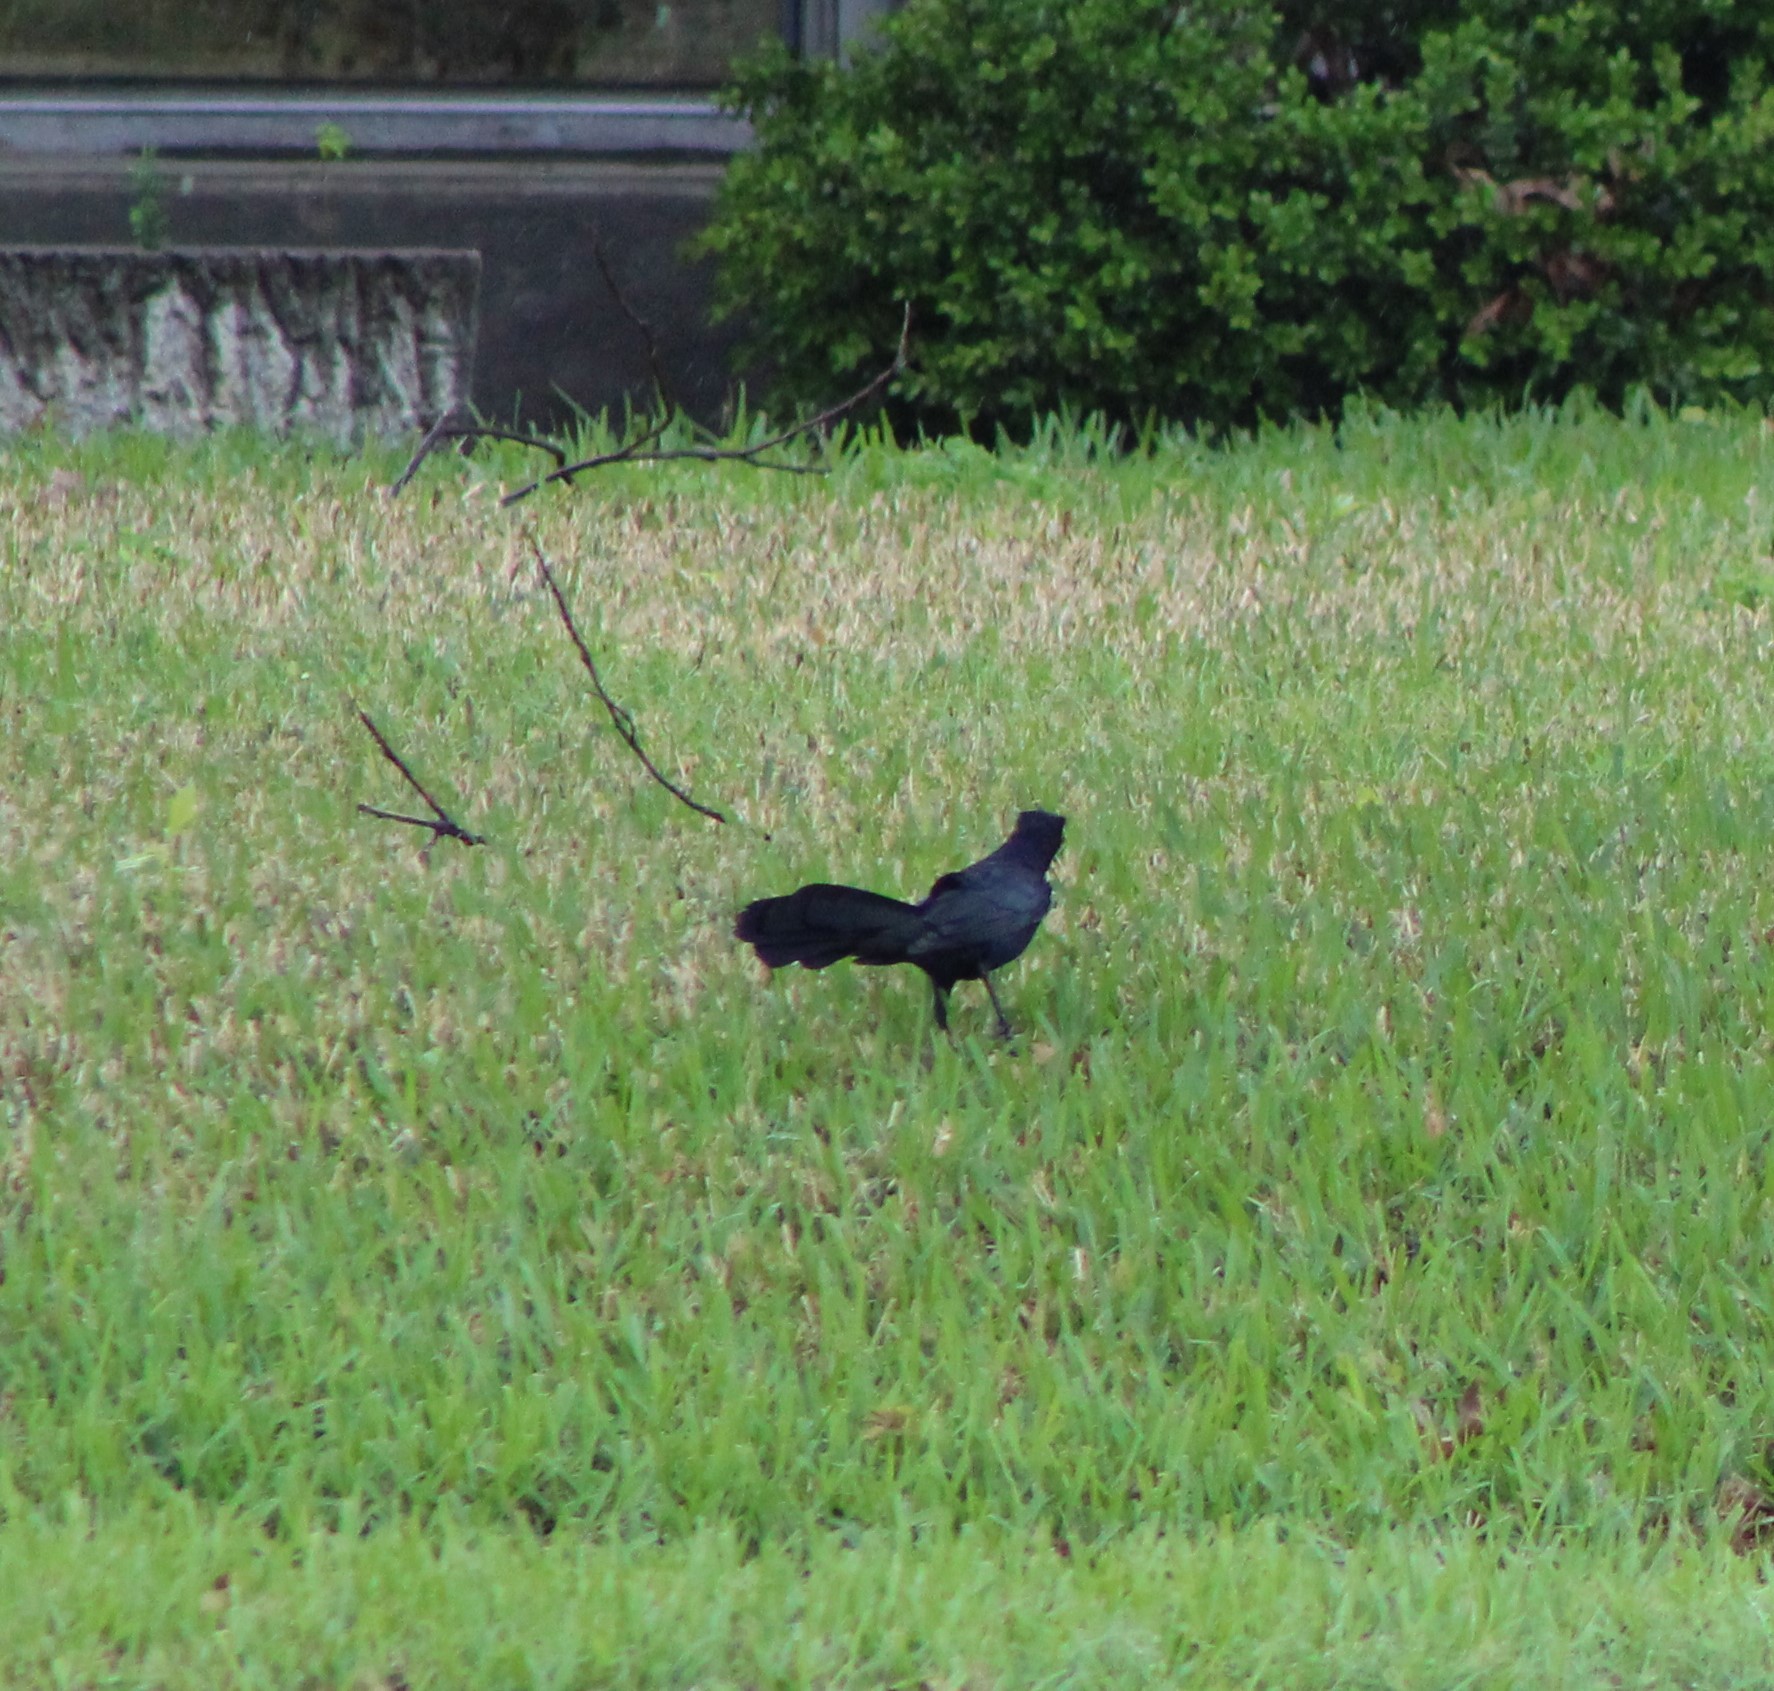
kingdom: Animalia
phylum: Chordata
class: Aves
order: Passeriformes
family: Icteridae
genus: Quiscalus
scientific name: Quiscalus mexicanus
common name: Great-tailed grackle
